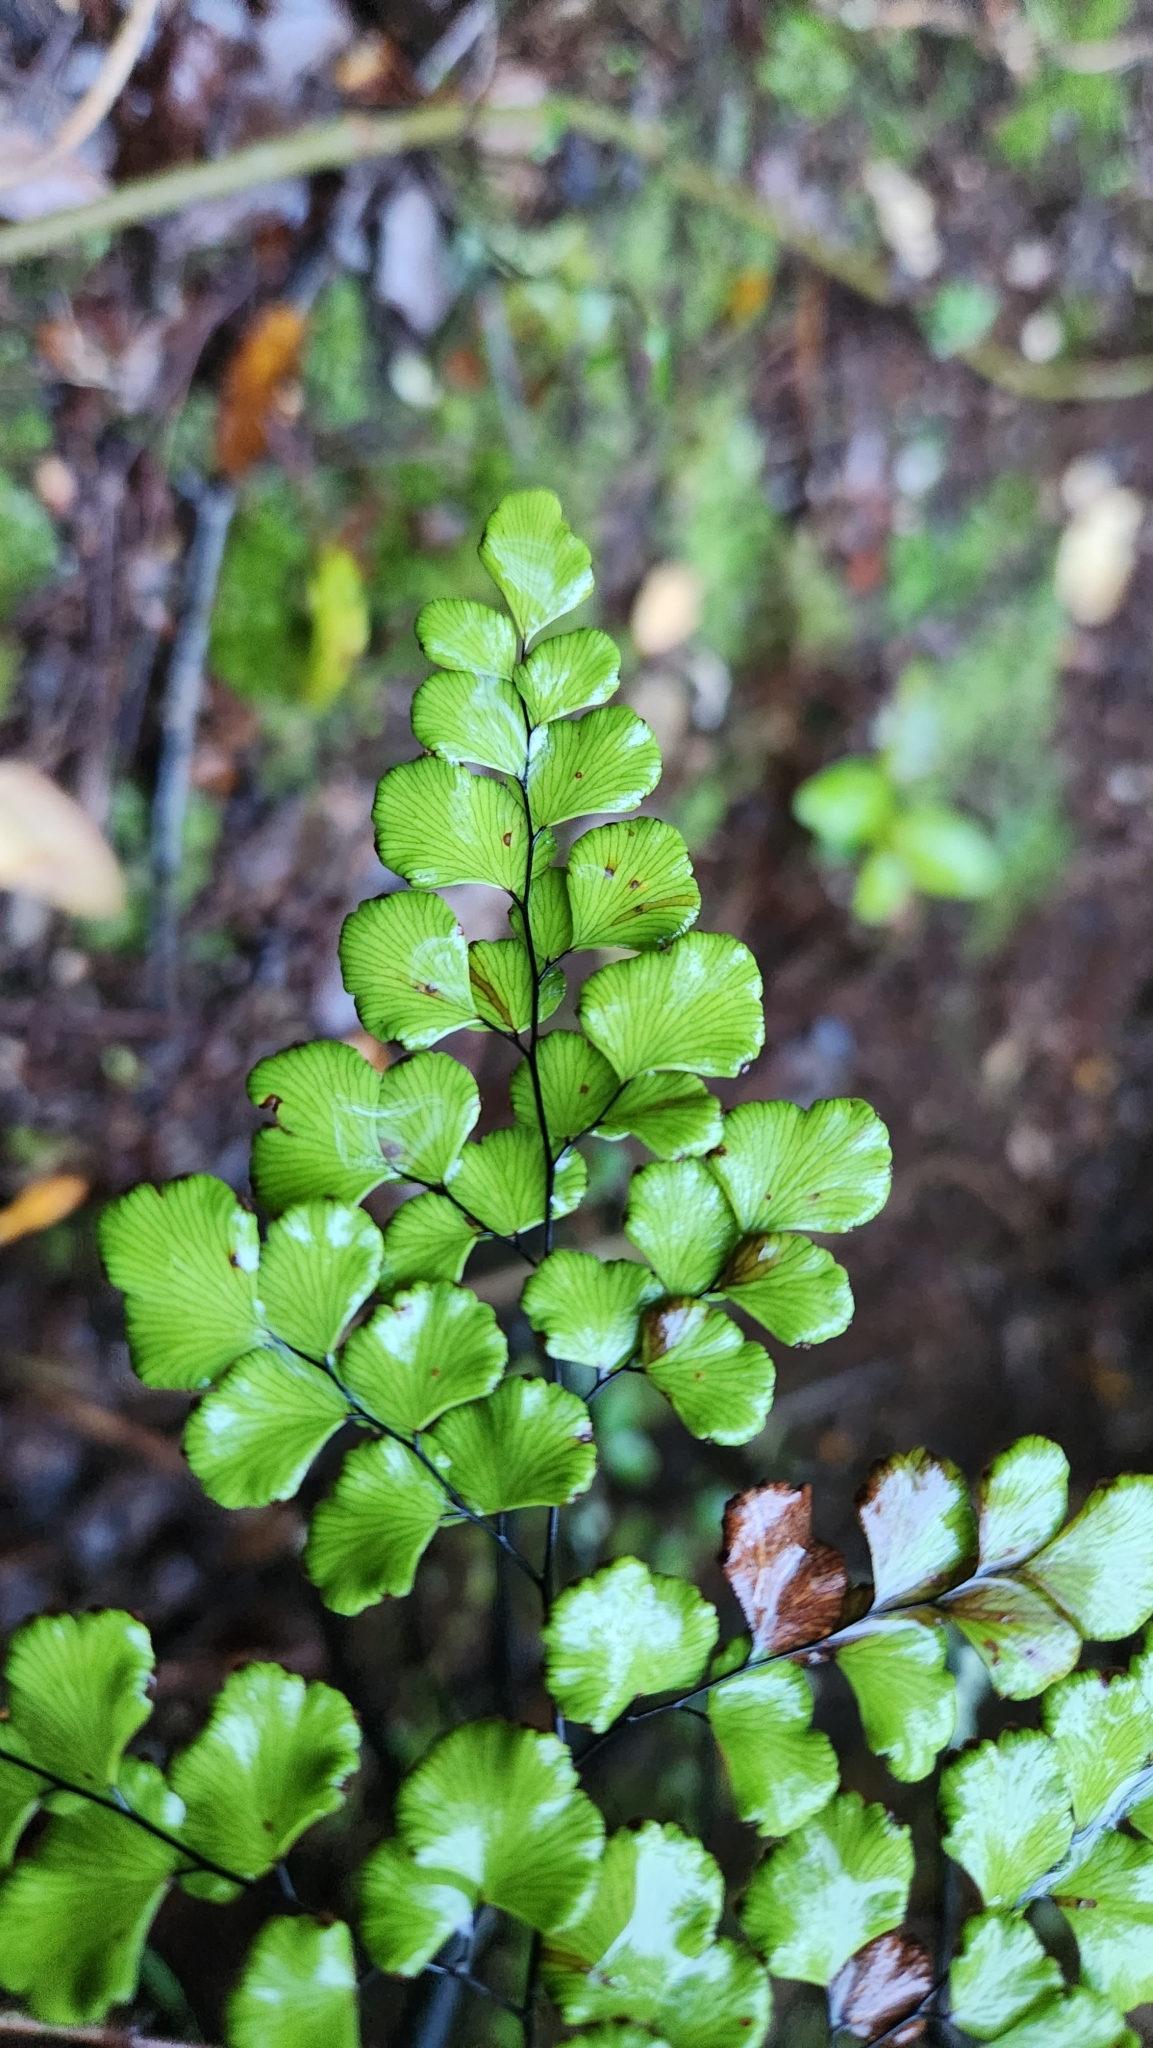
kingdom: Plantae
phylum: Tracheophyta
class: Polypodiopsida
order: Polypodiales
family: Pteridaceae
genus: Adiantum
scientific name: Adiantum chilense
